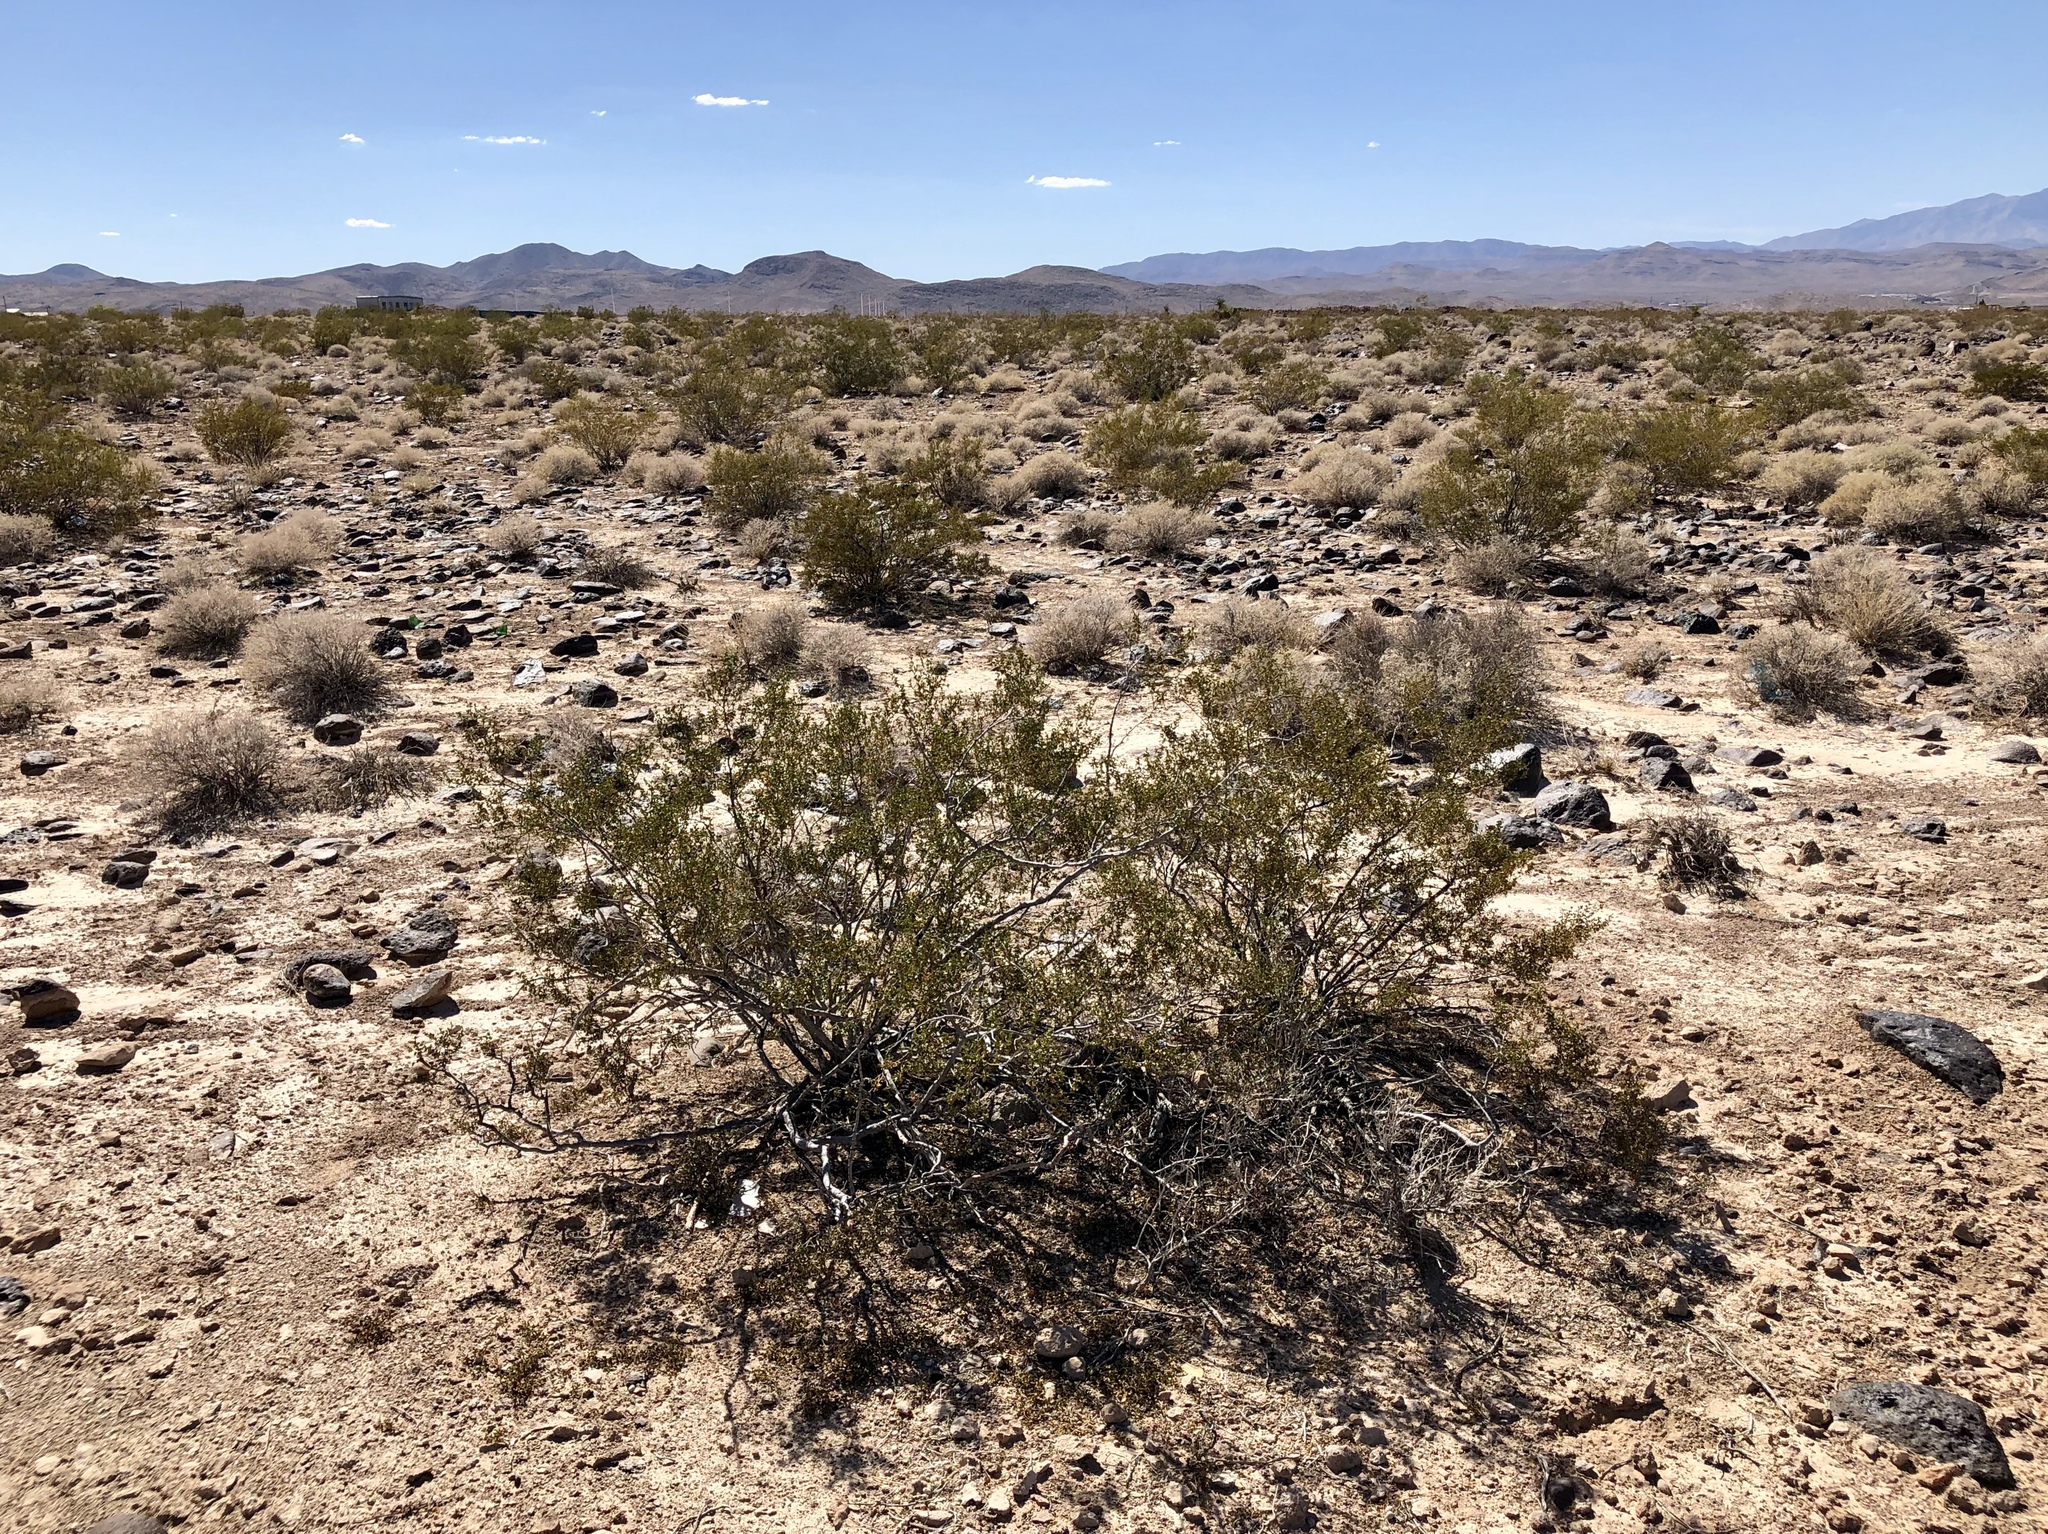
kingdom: Plantae
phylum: Tracheophyta
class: Magnoliopsida
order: Zygophyllales
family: Zygophyllaceae
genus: Larrea
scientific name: Larrea tridentata
